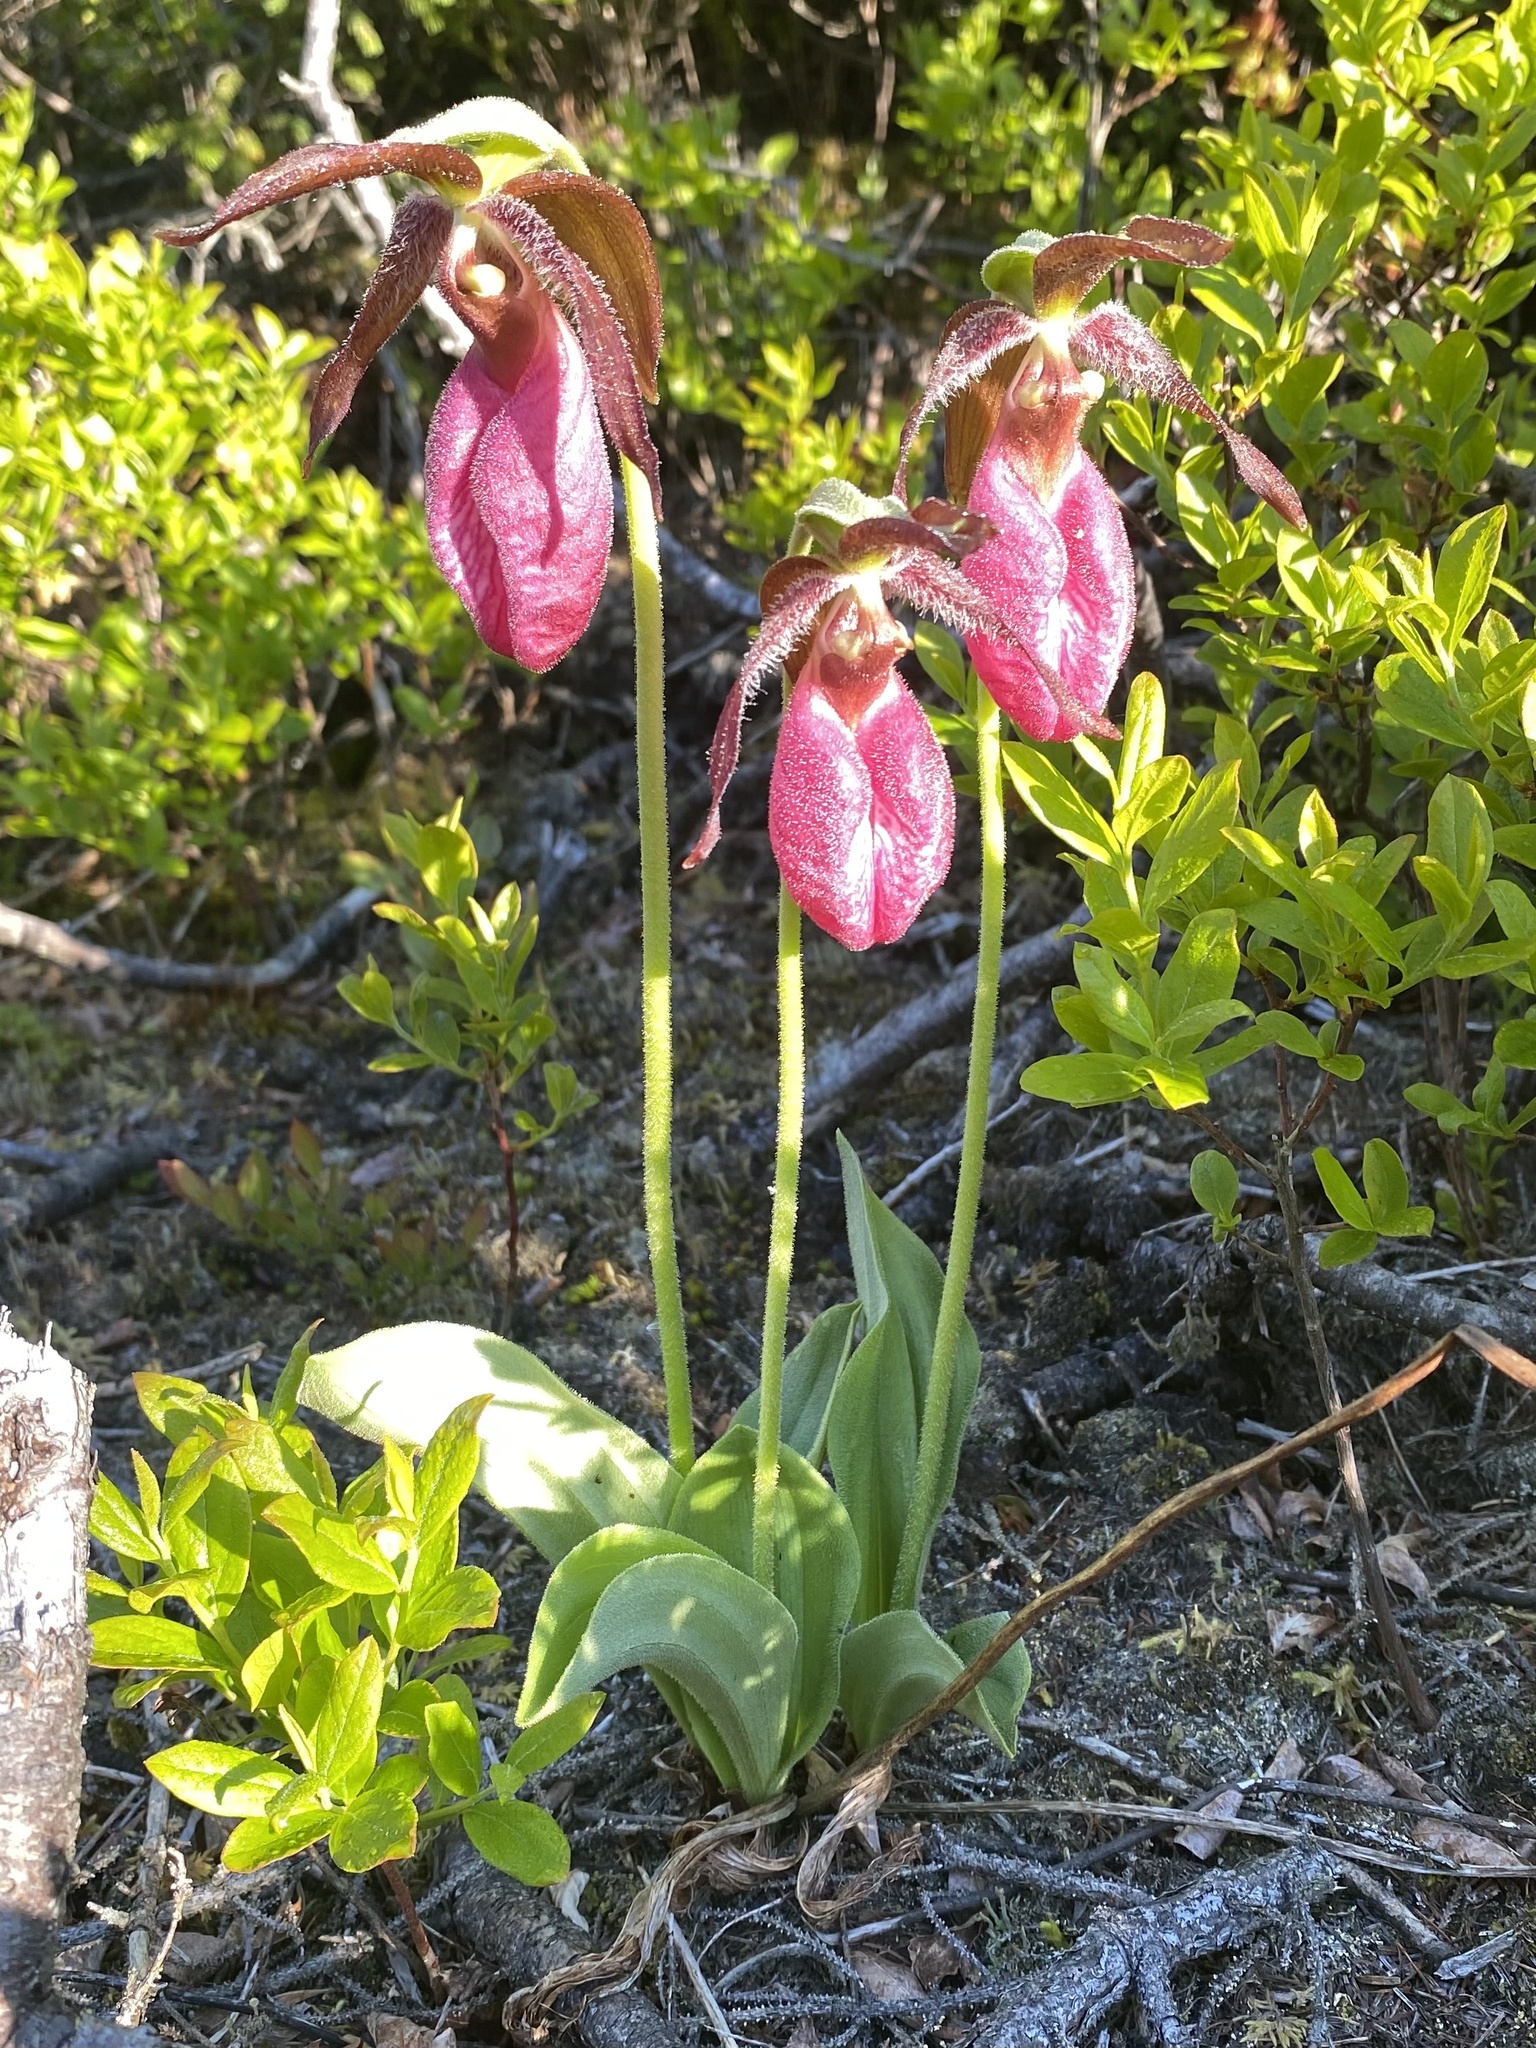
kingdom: Plantae
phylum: Tracheophyta
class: Liliopsida
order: Asparagales
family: Orchidaceae
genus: Cypripedium
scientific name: Cypripedium acaule
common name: Pink lady's-slipper
